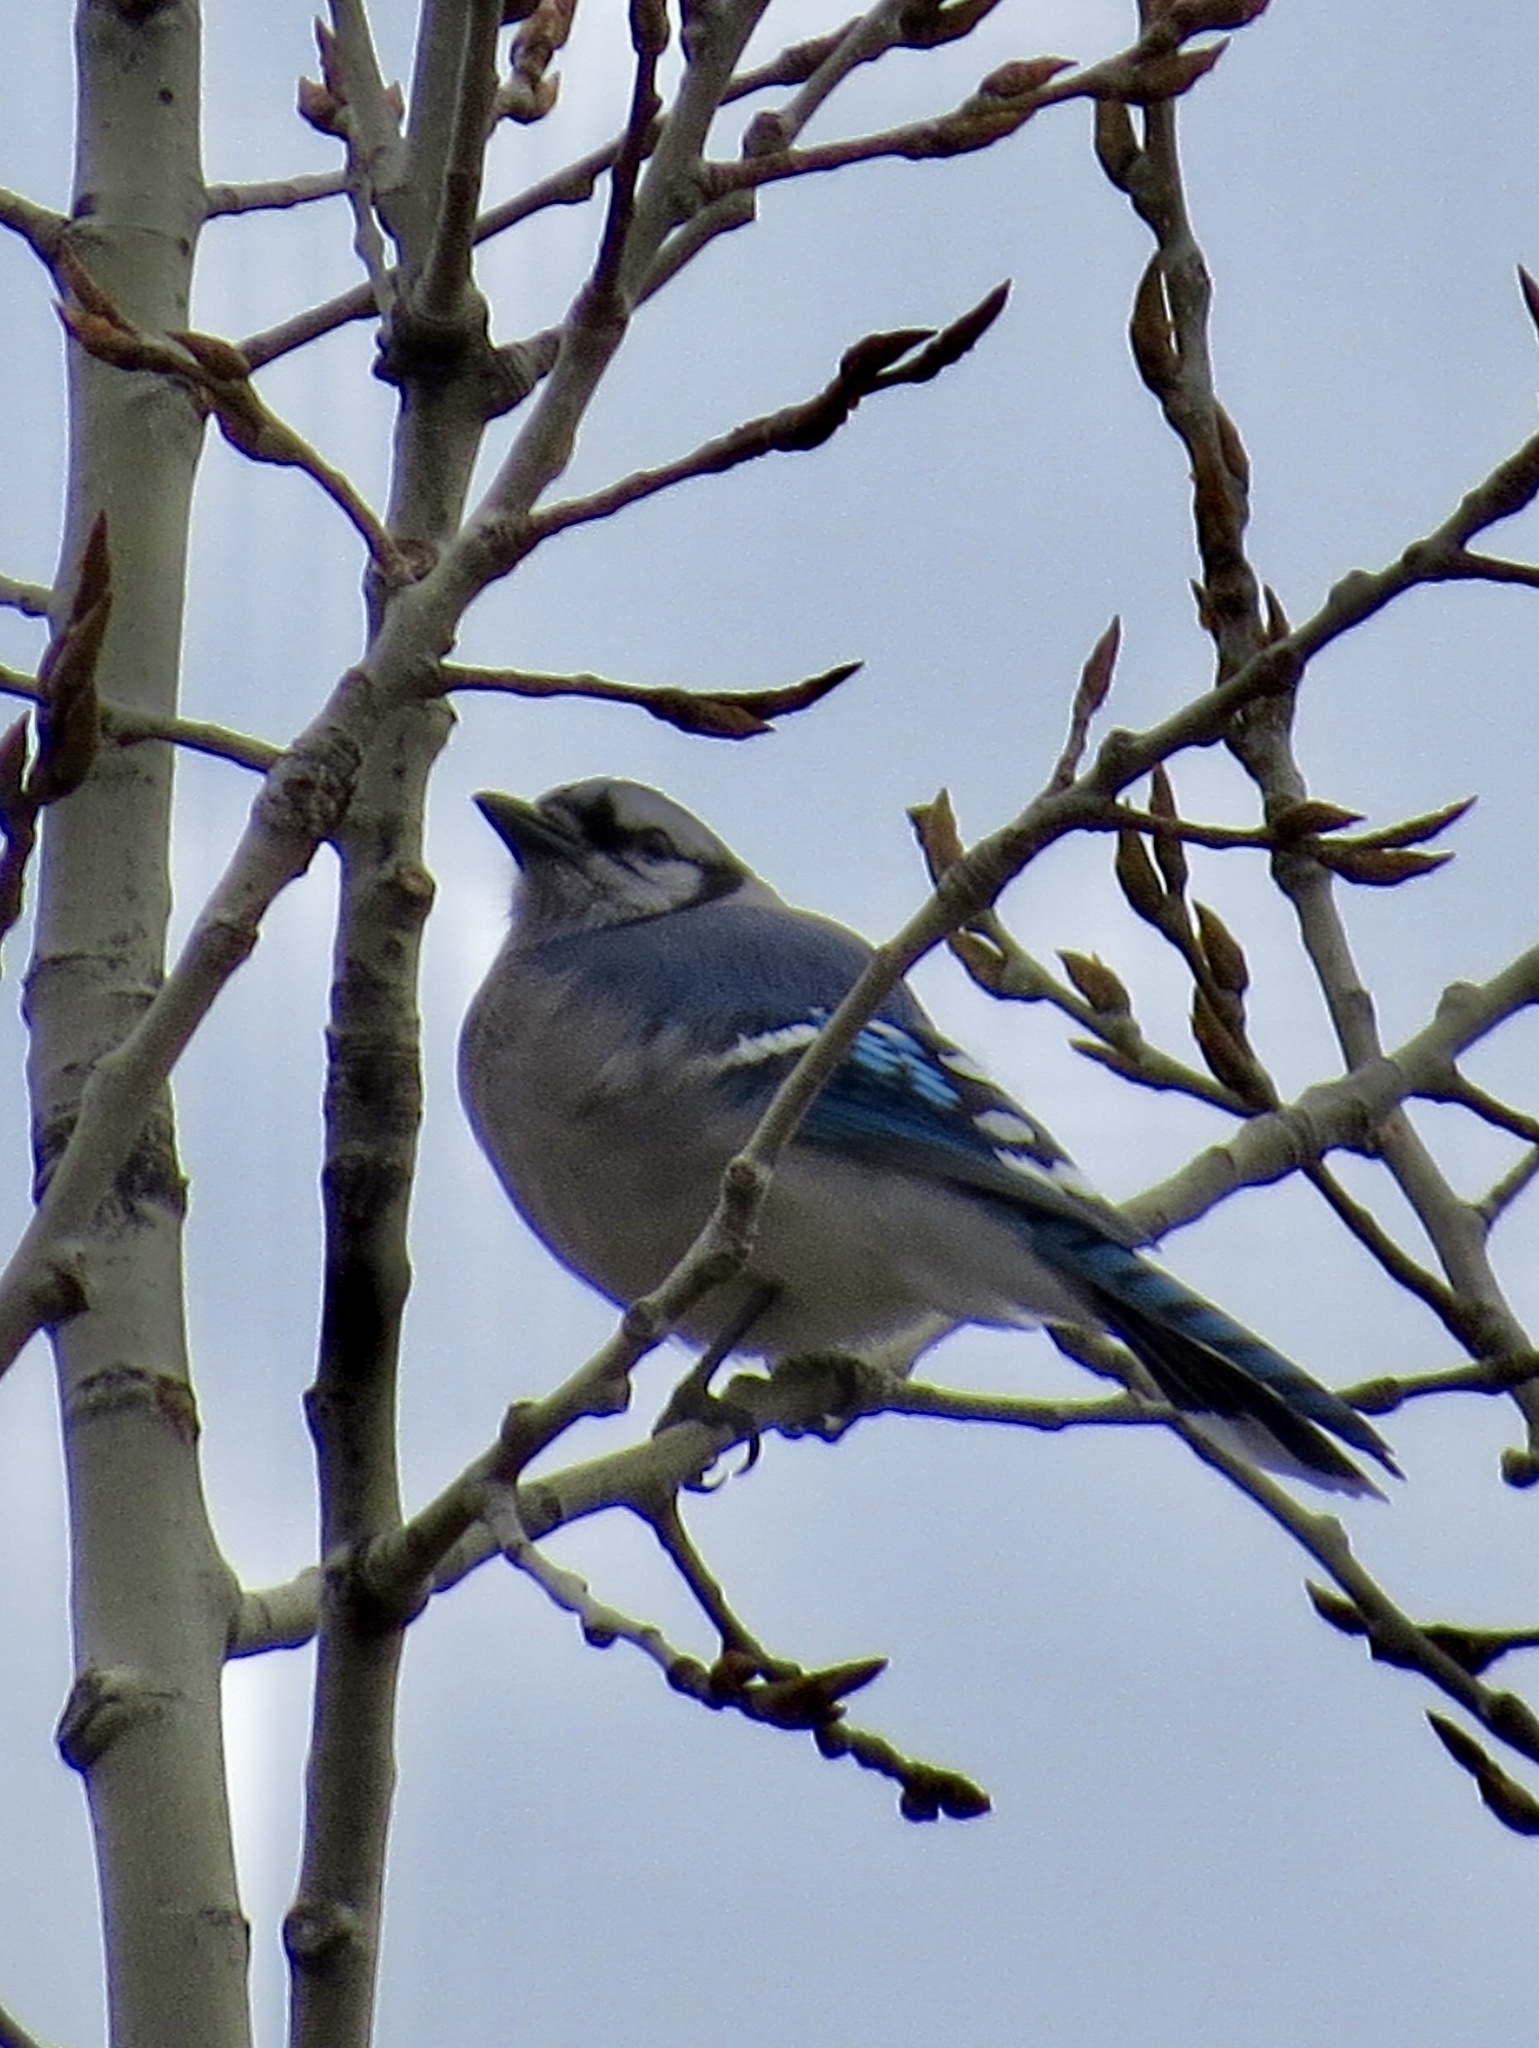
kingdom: Animalia
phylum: Chordata
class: Aves
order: Passeriformes
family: Corvidae
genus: Cyanocitta
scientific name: Cyanocitta cristata
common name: Blue jay
